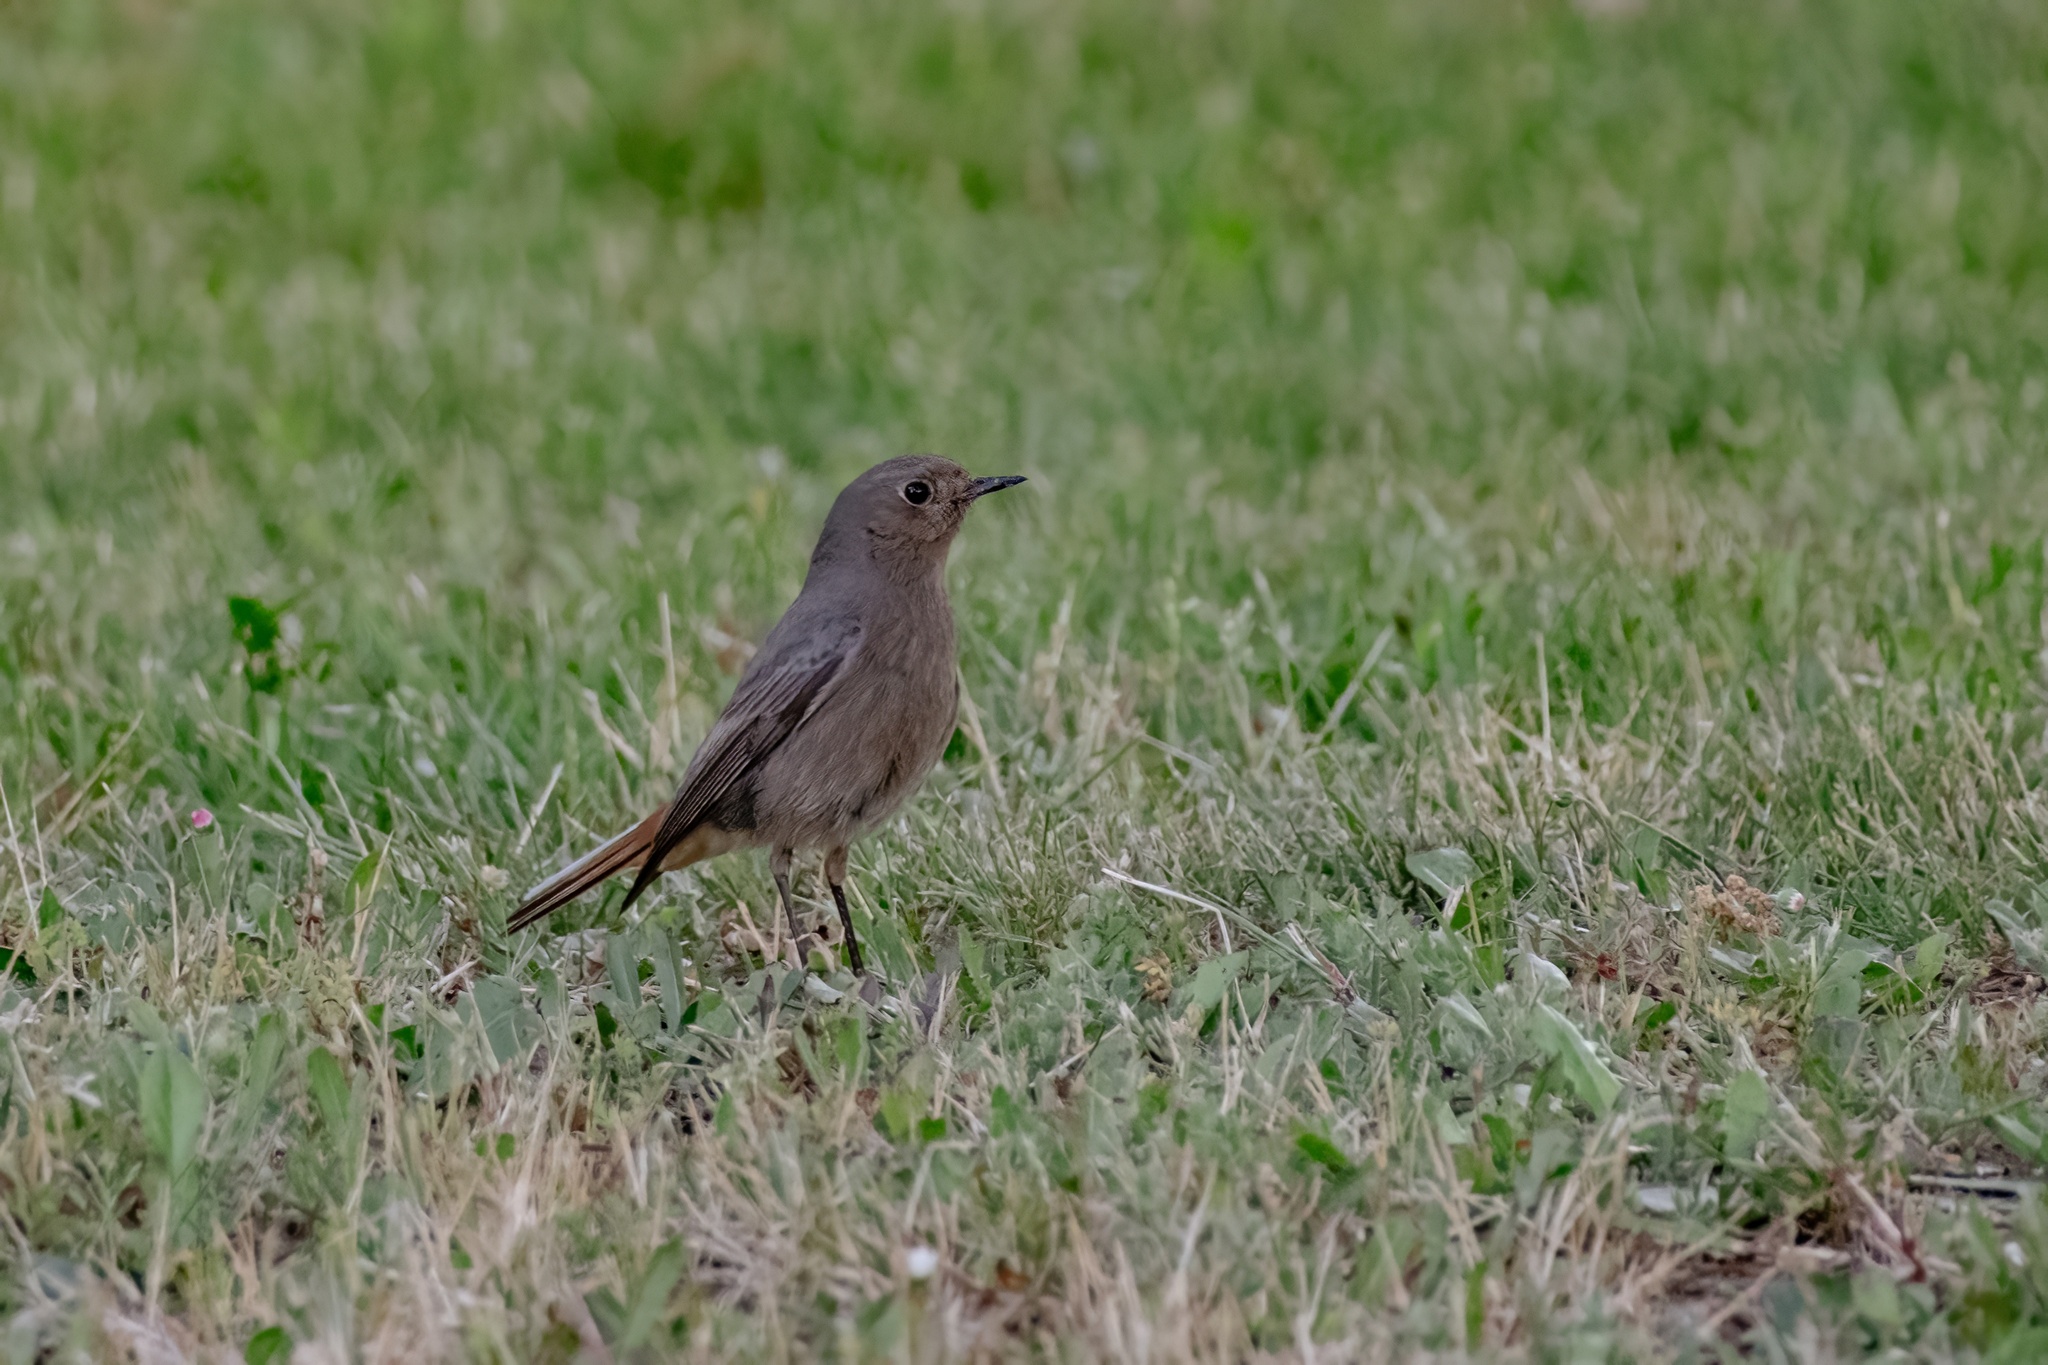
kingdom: Animalia
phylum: Chordata
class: Aves
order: Passeriformes
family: Muscicapidae
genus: Phoenicurus
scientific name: Phoenicurus ochruros
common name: Black redstart
